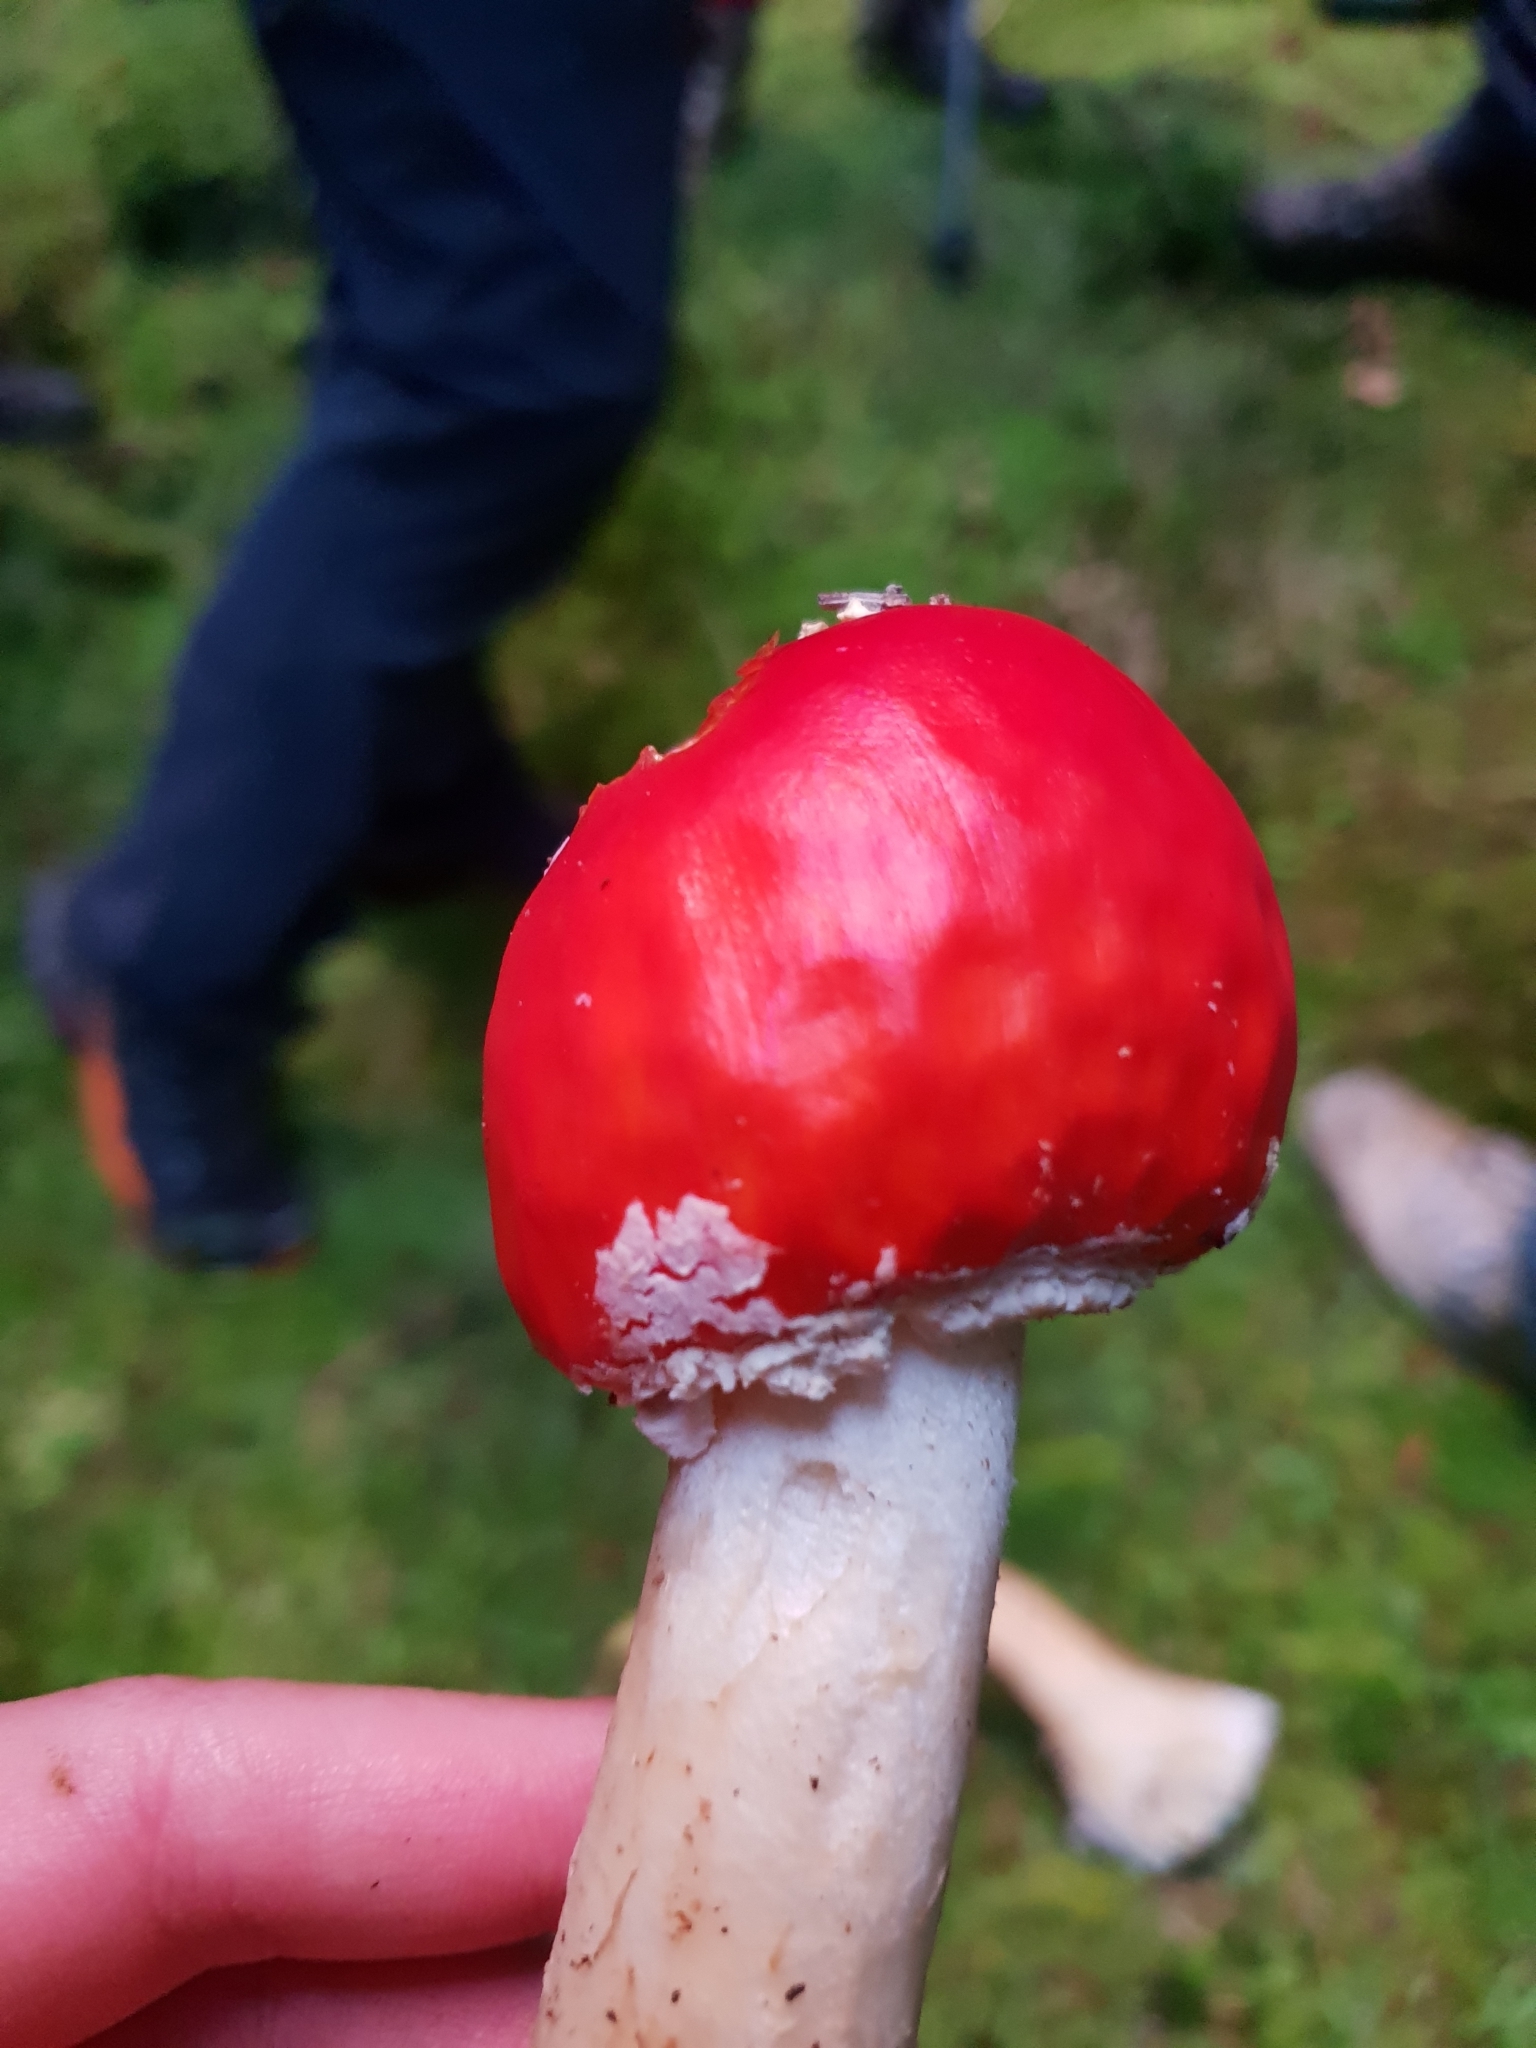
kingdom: Fungi
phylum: Basidiomycota
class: Agaricomycetes
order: Agaricales
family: Amanitaceae
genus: Amanita
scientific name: Amanita muscaria
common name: Fly agaric
